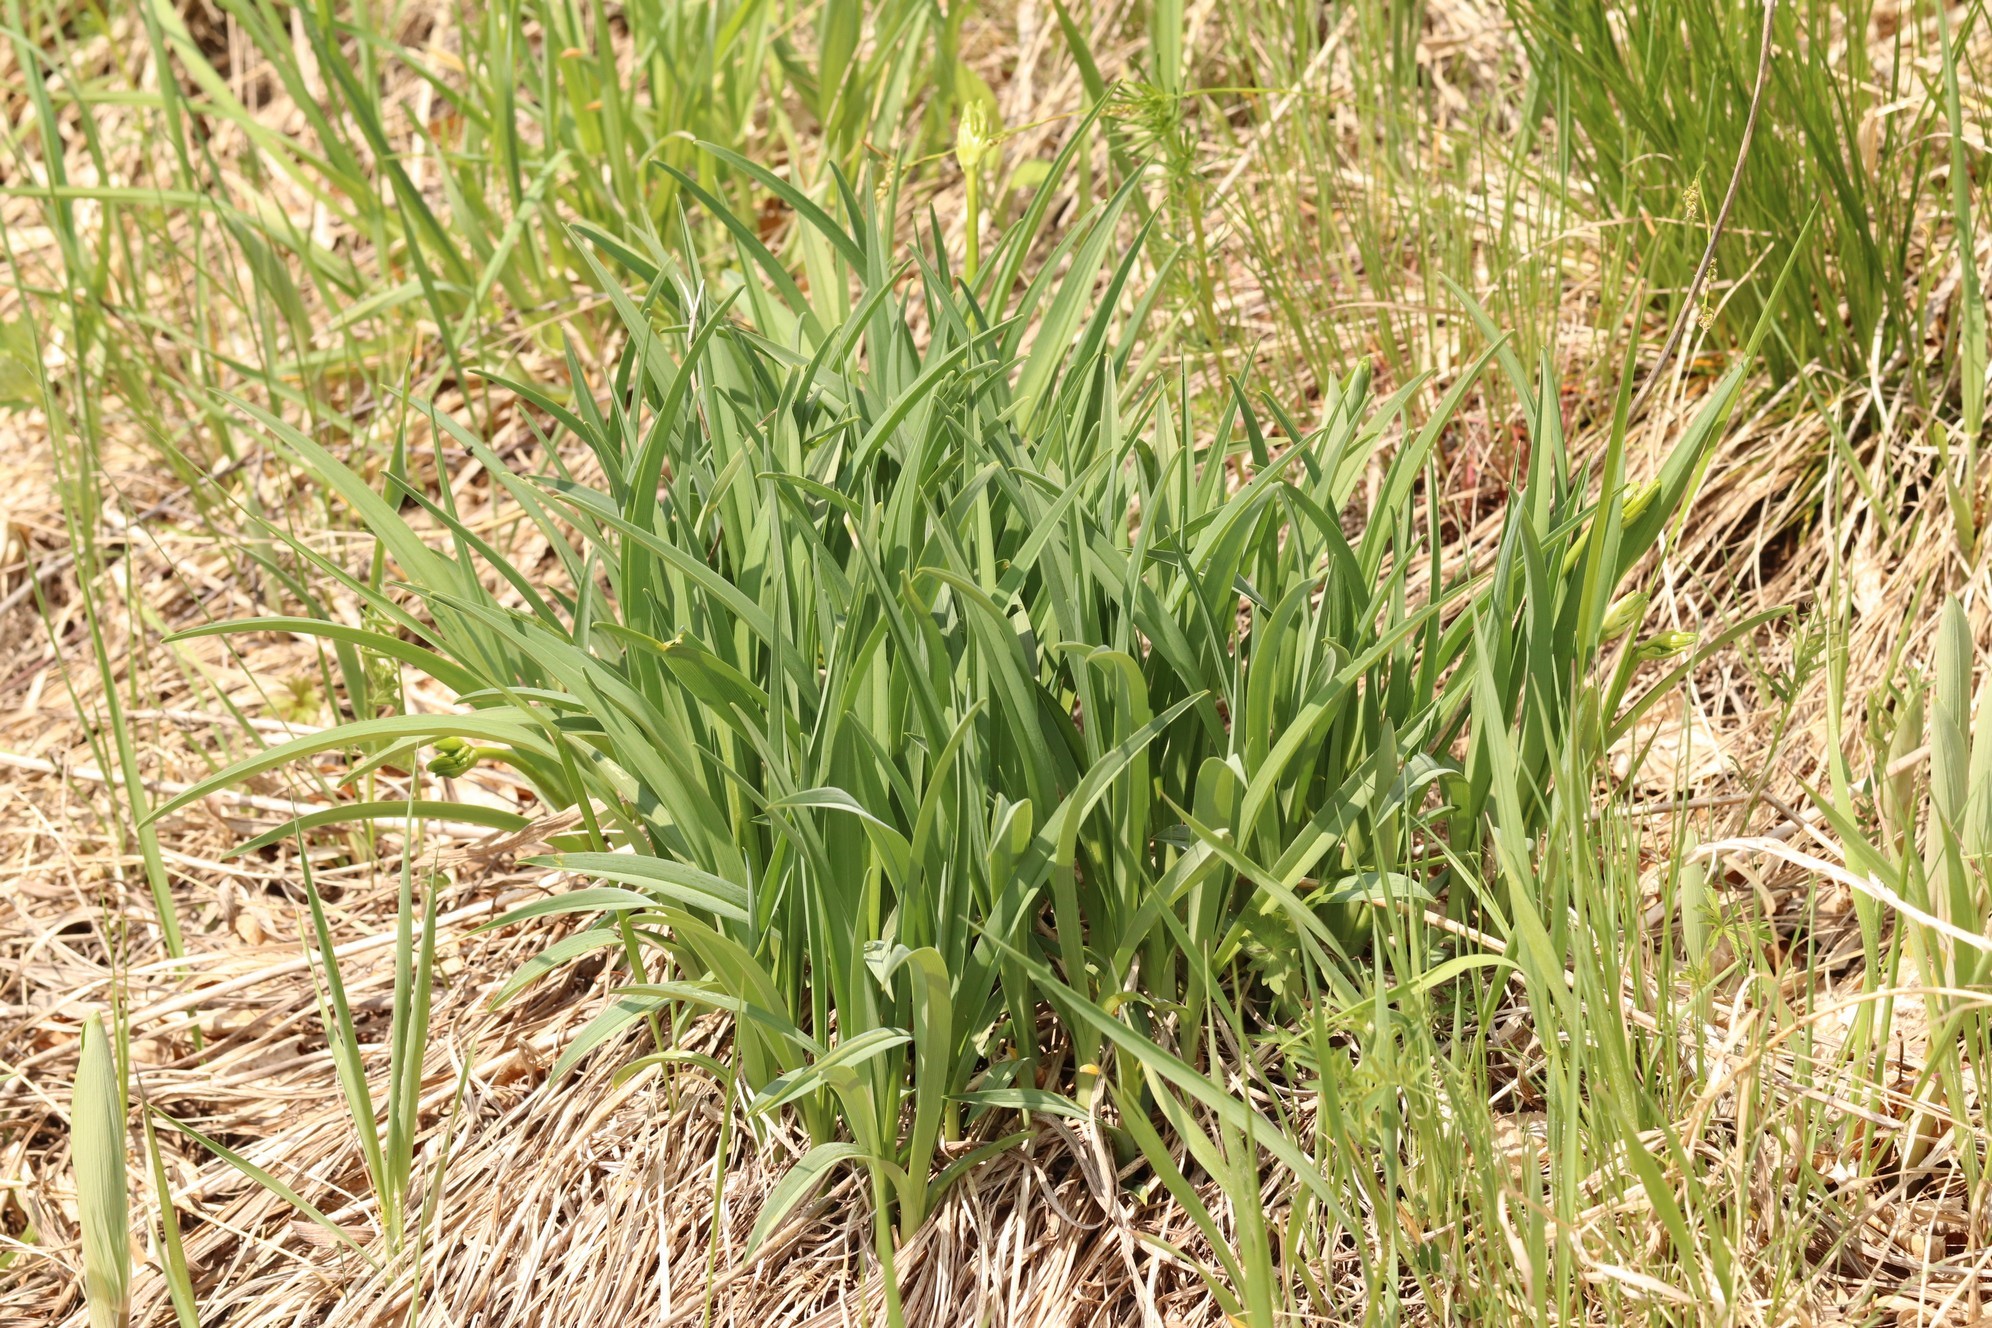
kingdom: Plantae
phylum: Tracheophyta
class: Liliopsida
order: Asparagales
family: Asphodelaceae
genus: Hemerocallis
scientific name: Hemerocallis minor
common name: Small daylily
